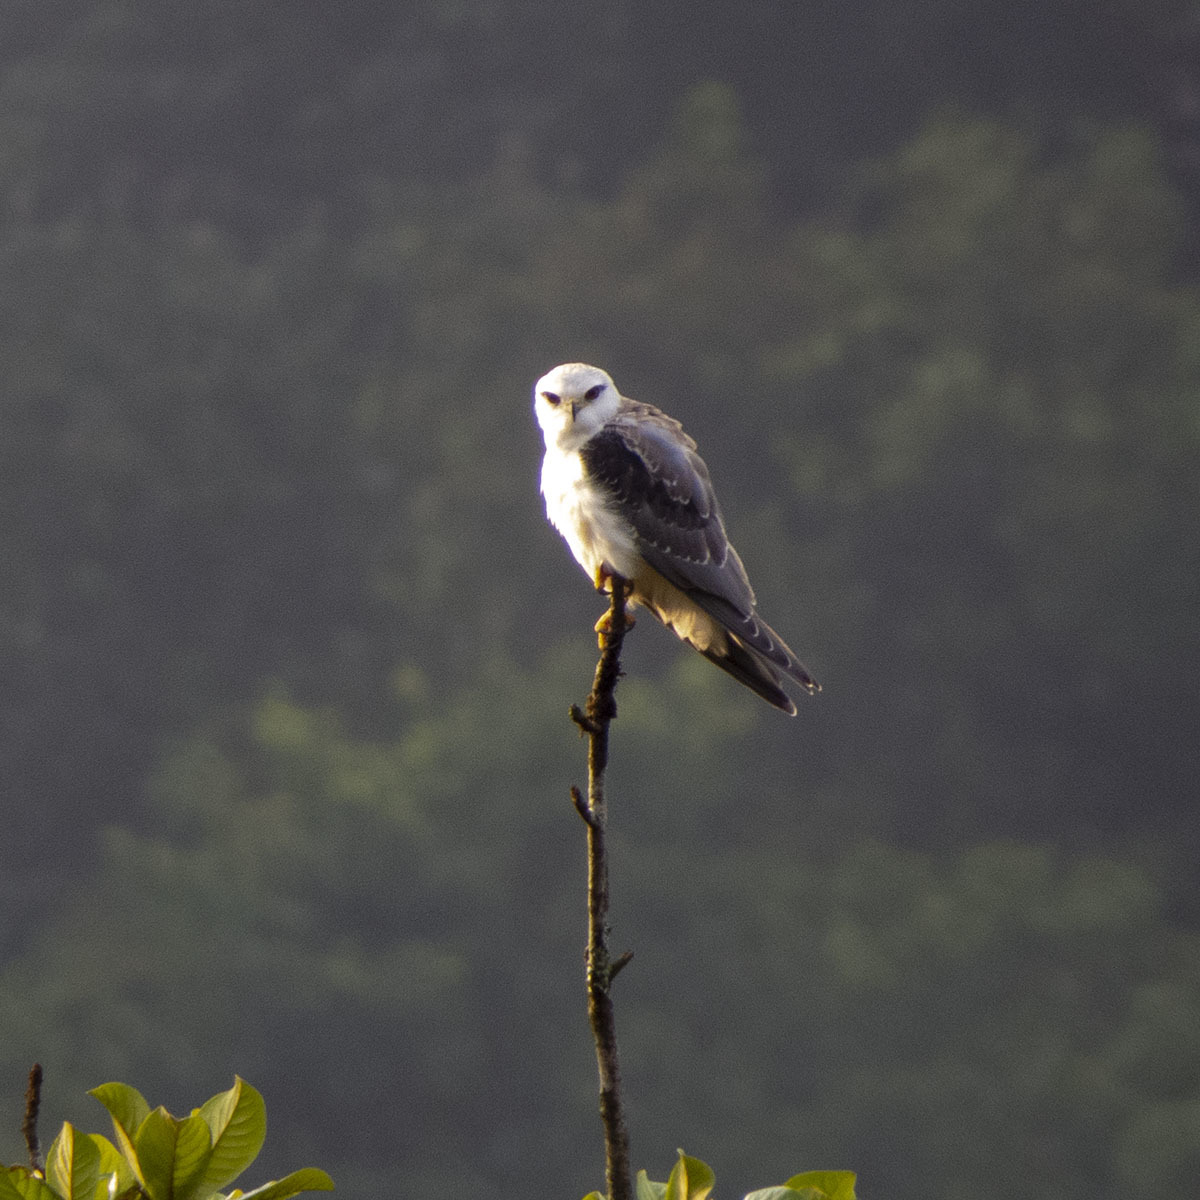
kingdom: Animalia
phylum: Chordata
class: Aves
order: Accipitriformes
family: Accipitridae
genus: Elanus
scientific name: Elanus caeruleus
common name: Black-winged kite
